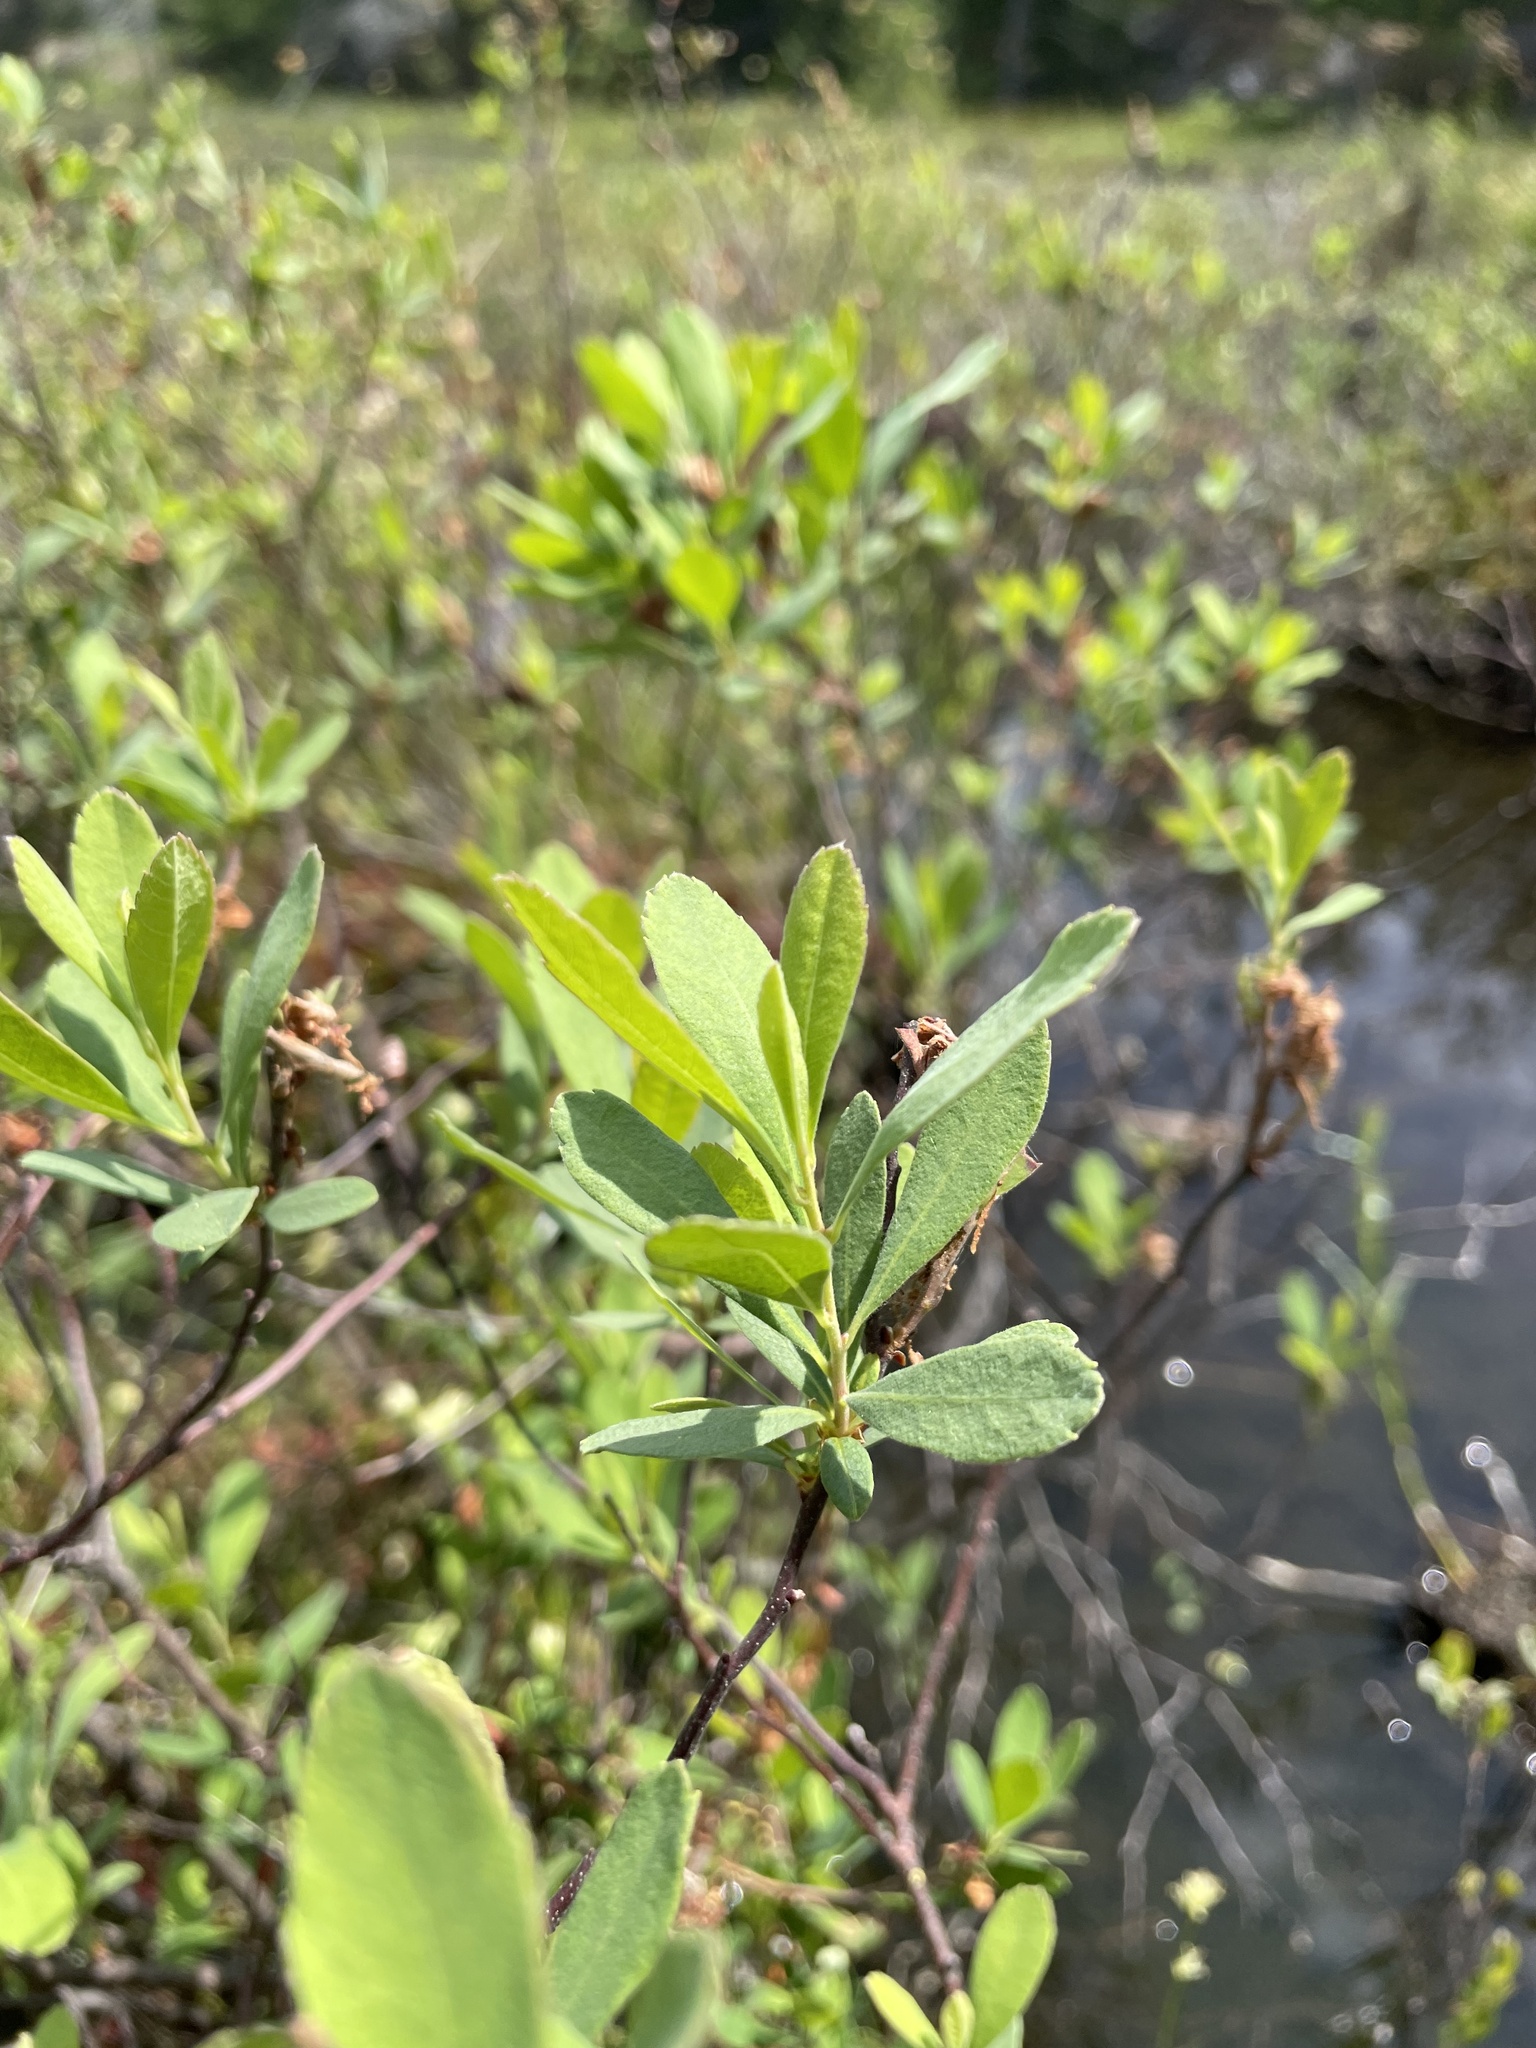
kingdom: Plantae
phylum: Tracheophyta
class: Magnoliopsida
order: Fagales
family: Myricaceae
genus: Myrica
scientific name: Myrica gale
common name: Sweet gale
